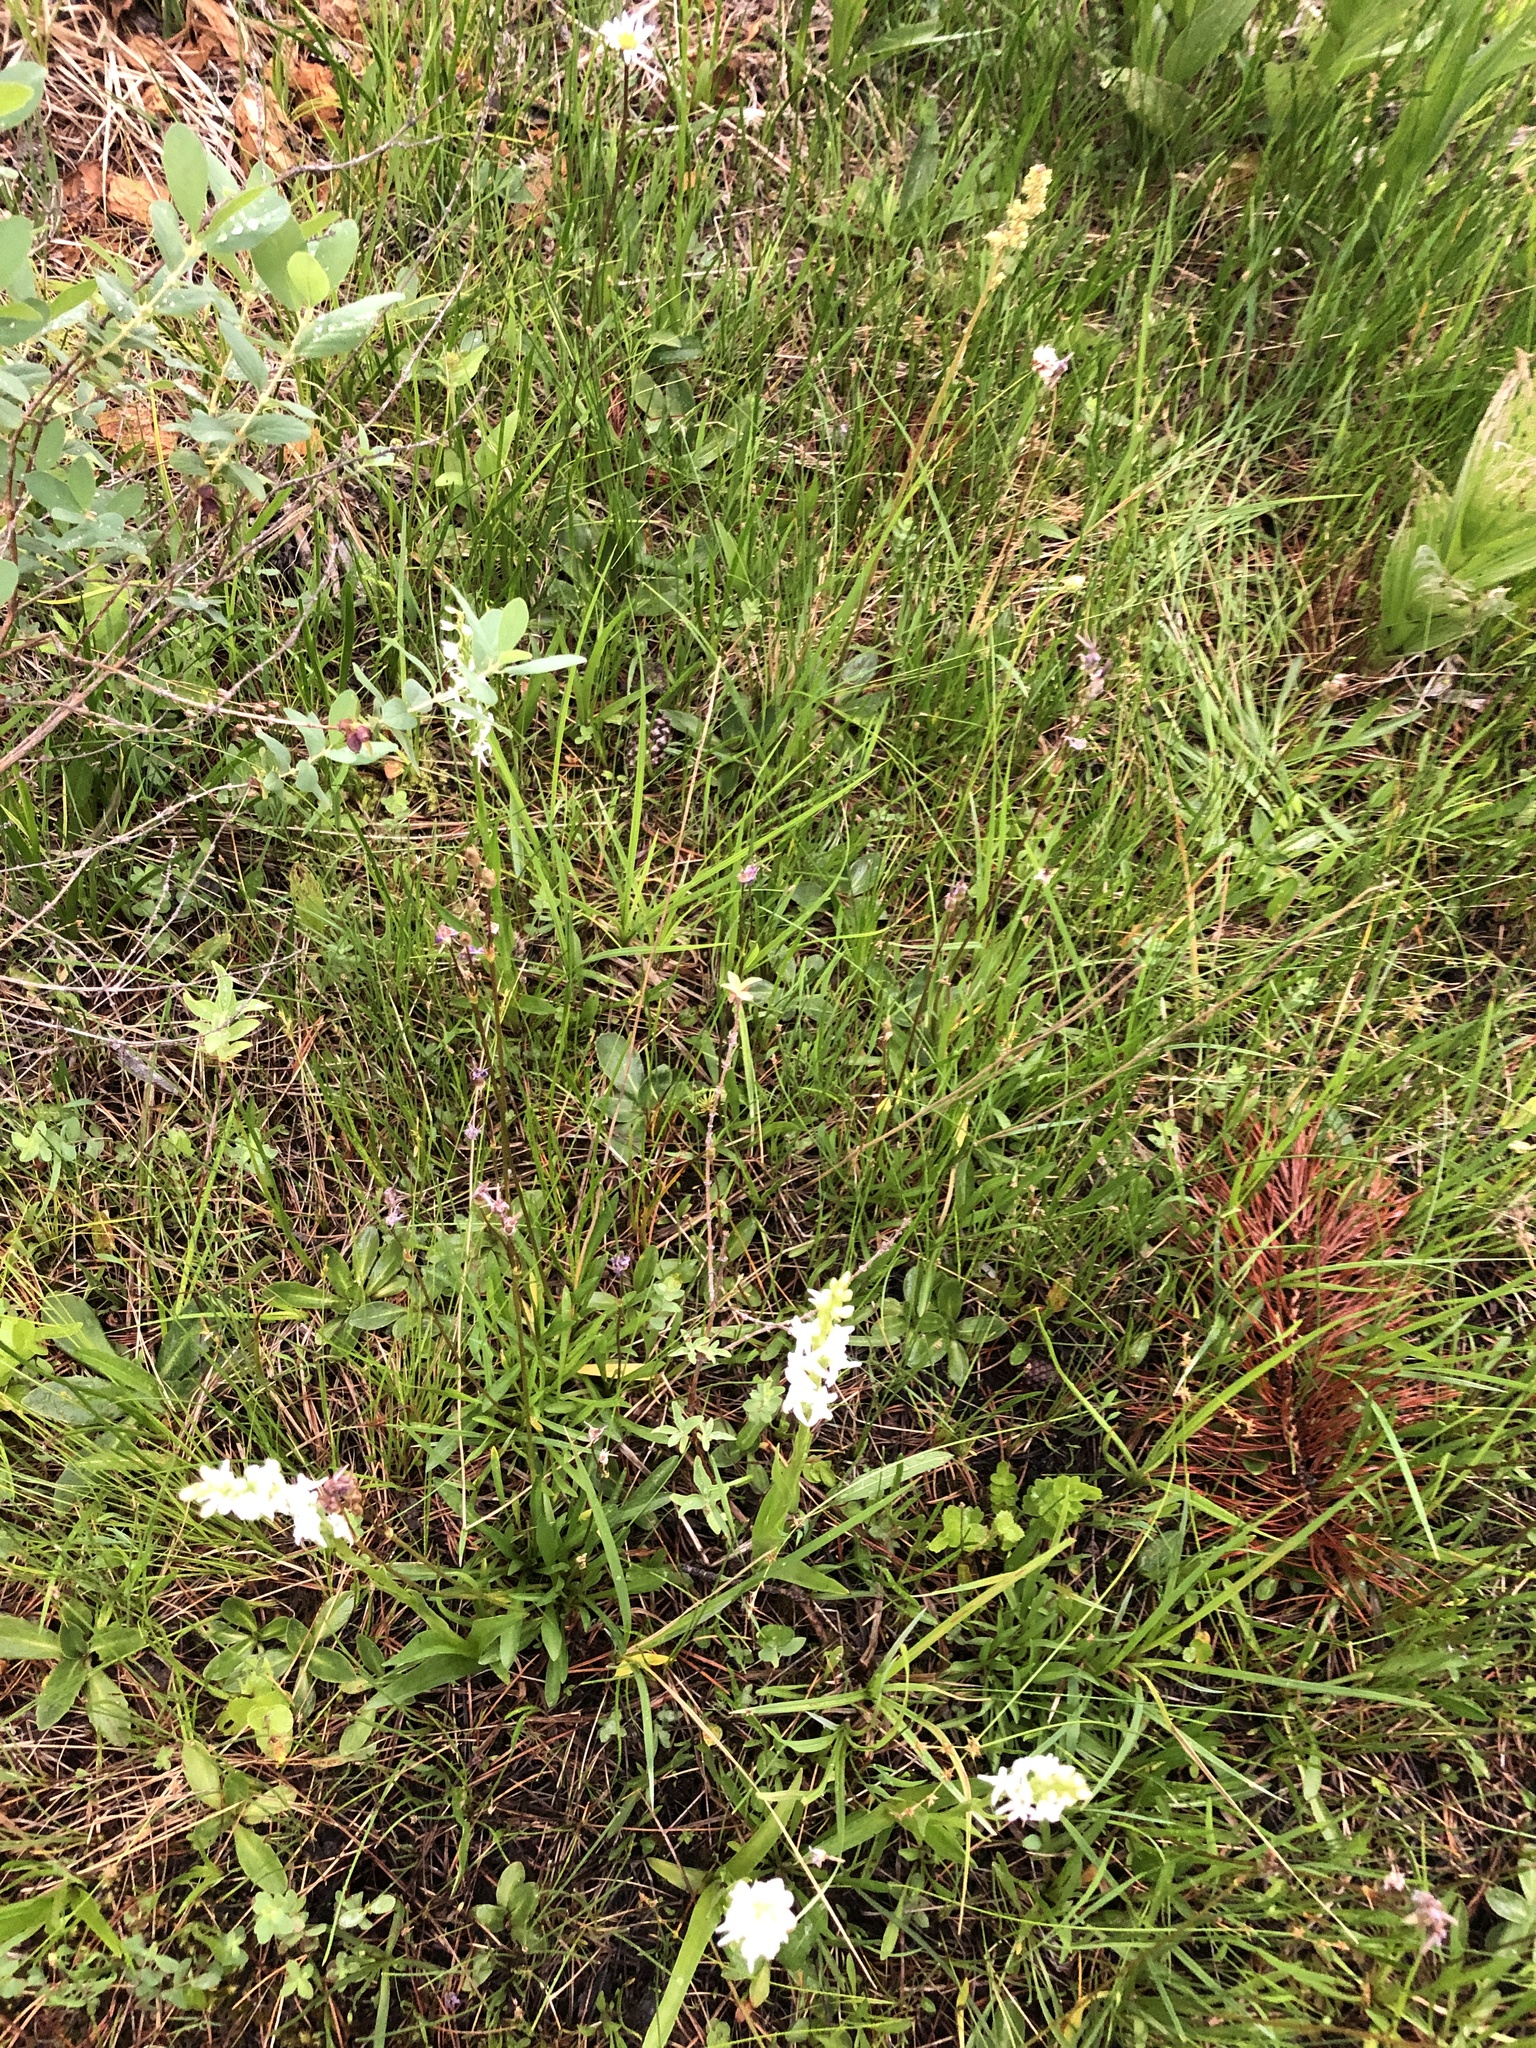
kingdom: Plantae
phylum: Tracheophyta
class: Liliopsida
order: Asparagales
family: Orchidaceae
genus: Platanthera
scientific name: Platanthera dilatata
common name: Bog candles
